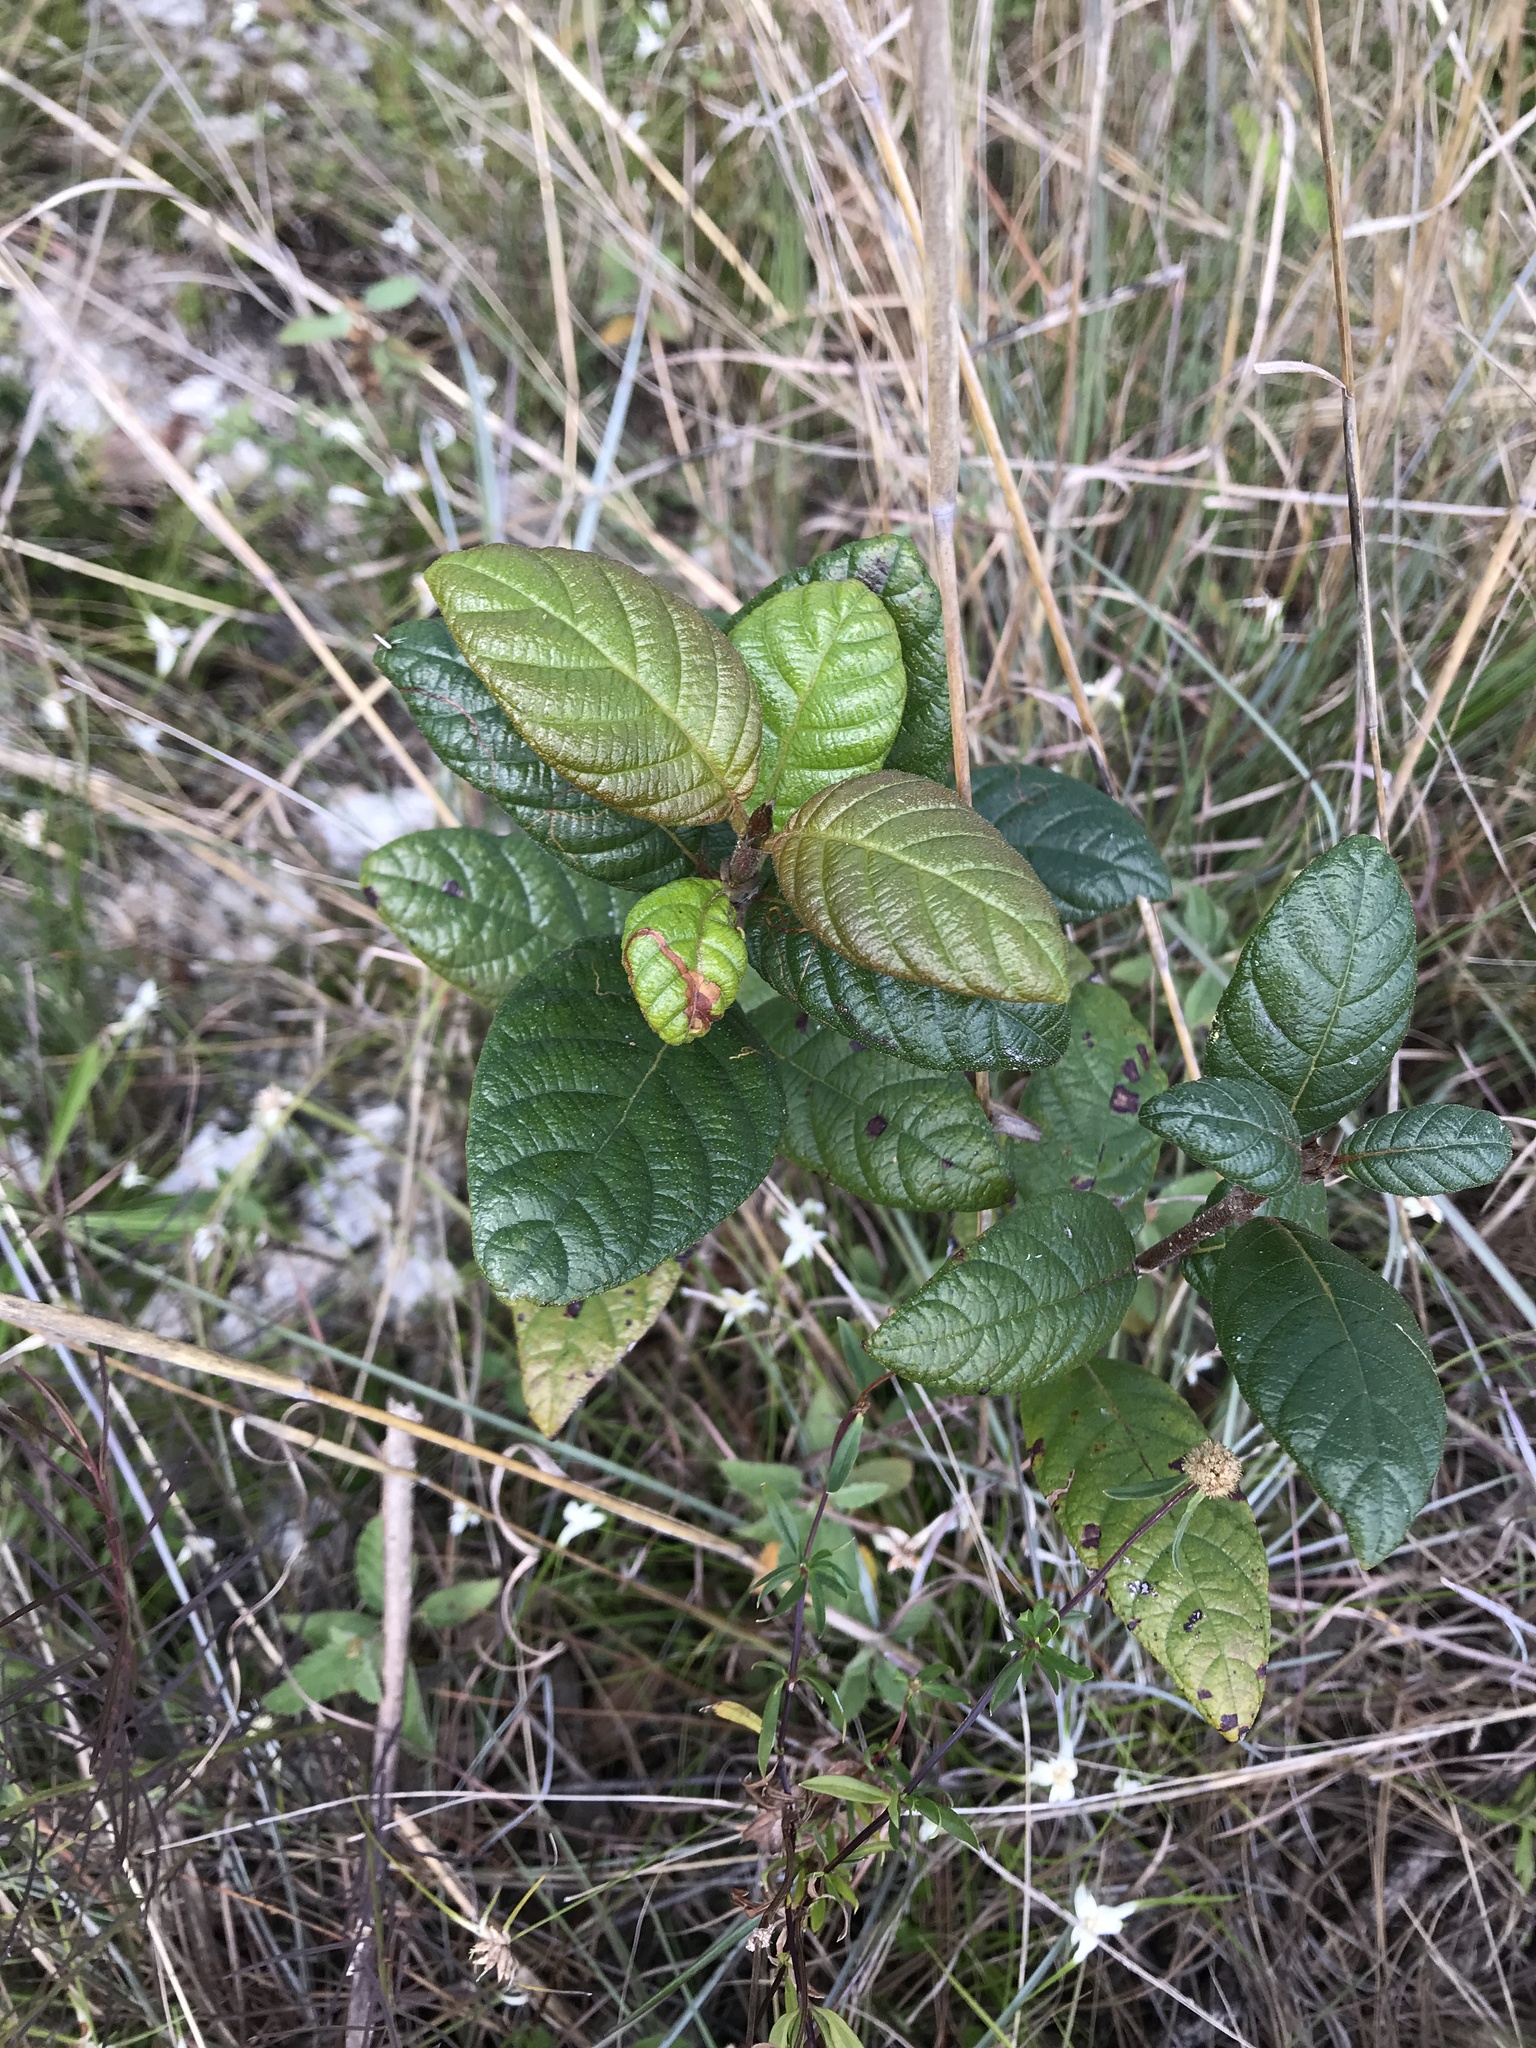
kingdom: Plantae
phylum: Tracheophyta
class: Magnoliopsida
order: Gentianales
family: Rubiaceae
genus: Guettarda
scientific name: Guettarda scabra
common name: Pigeon bay
